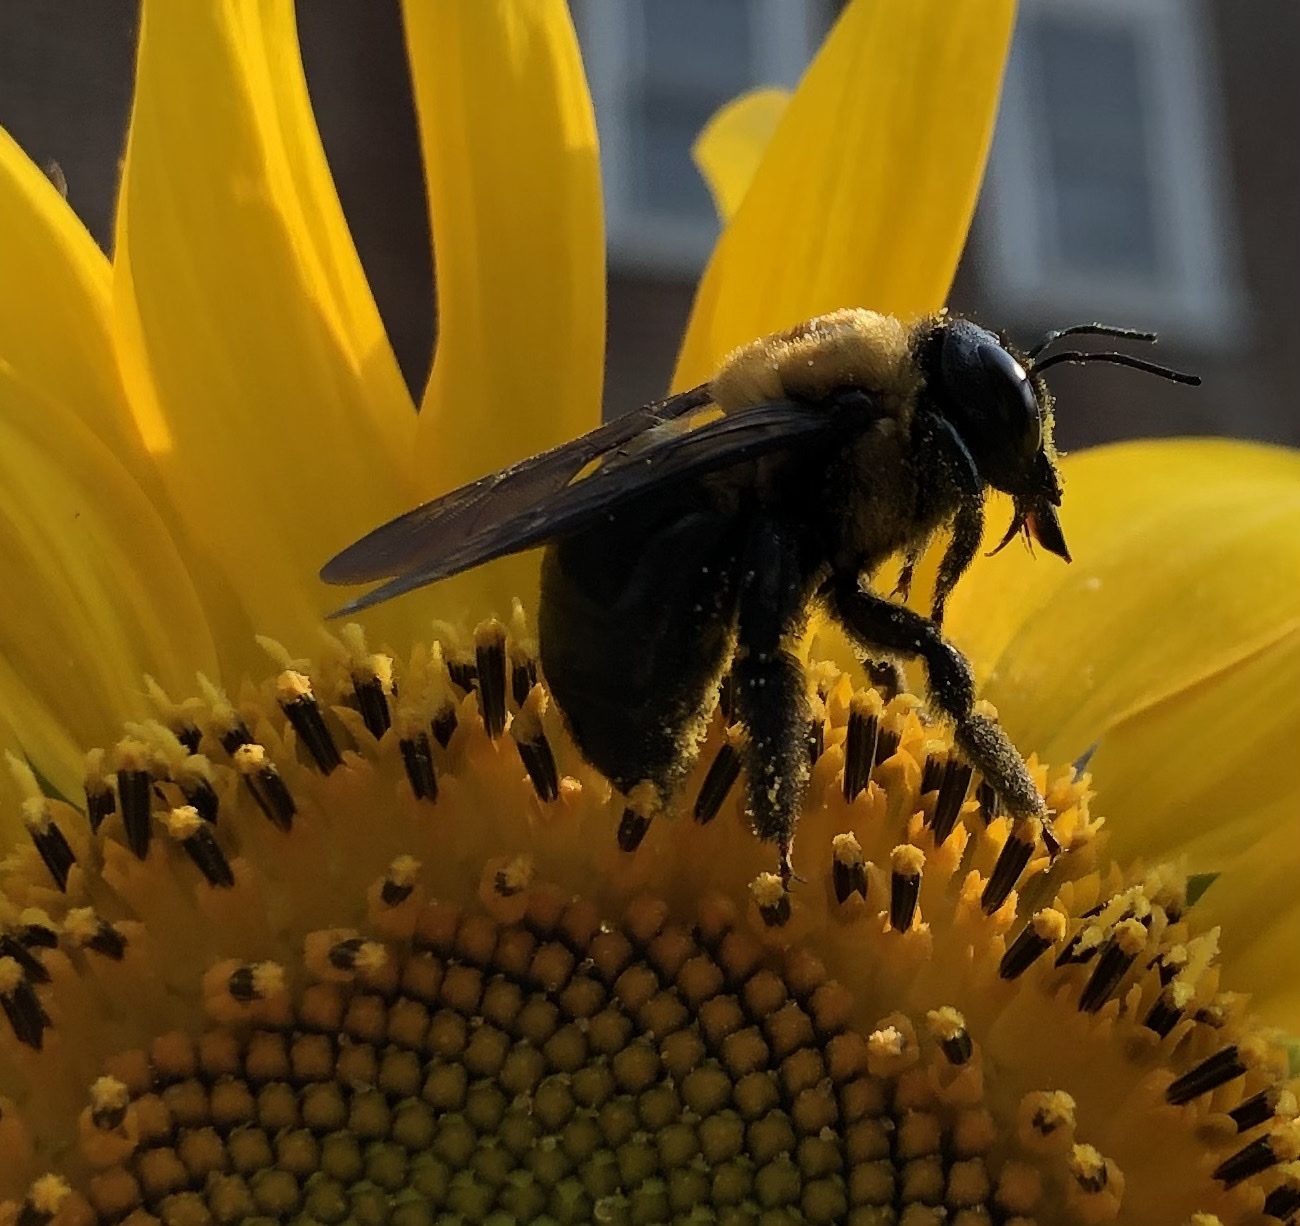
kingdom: Animalia
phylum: Arthropoda
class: Insecta
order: Hymenoptera
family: Apidae
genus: Xylocopa
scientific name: Xylocopa virginica
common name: Carpenter bee
